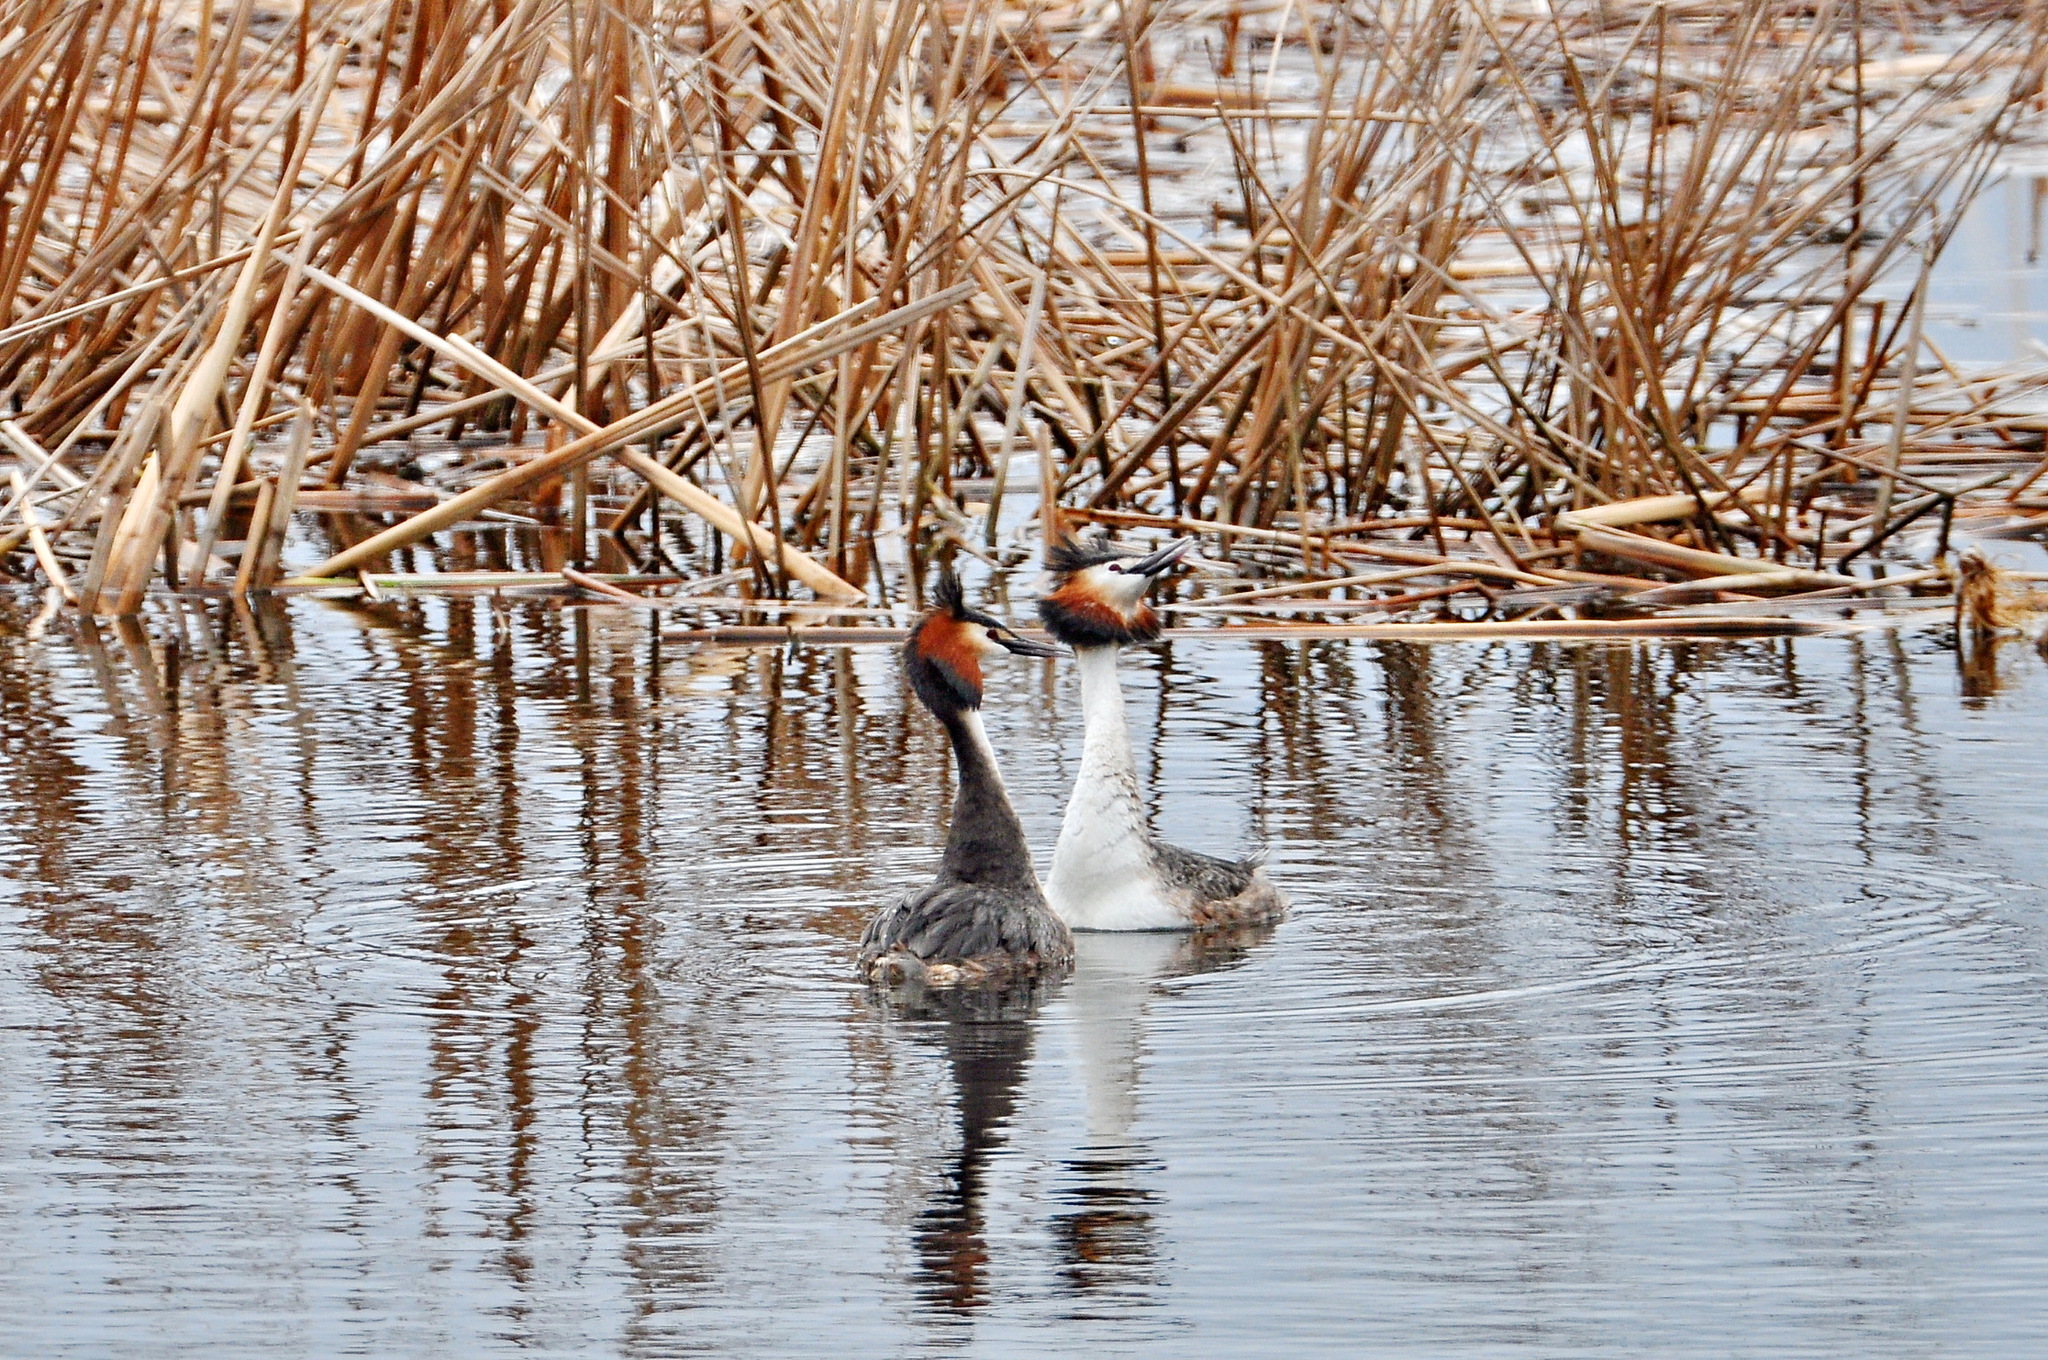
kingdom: Animalia
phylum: Chordata
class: Aves
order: Podicipediformes
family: Podicipedidae
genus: Podiceps
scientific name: Podiceps cristatus
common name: Great crested grebe
